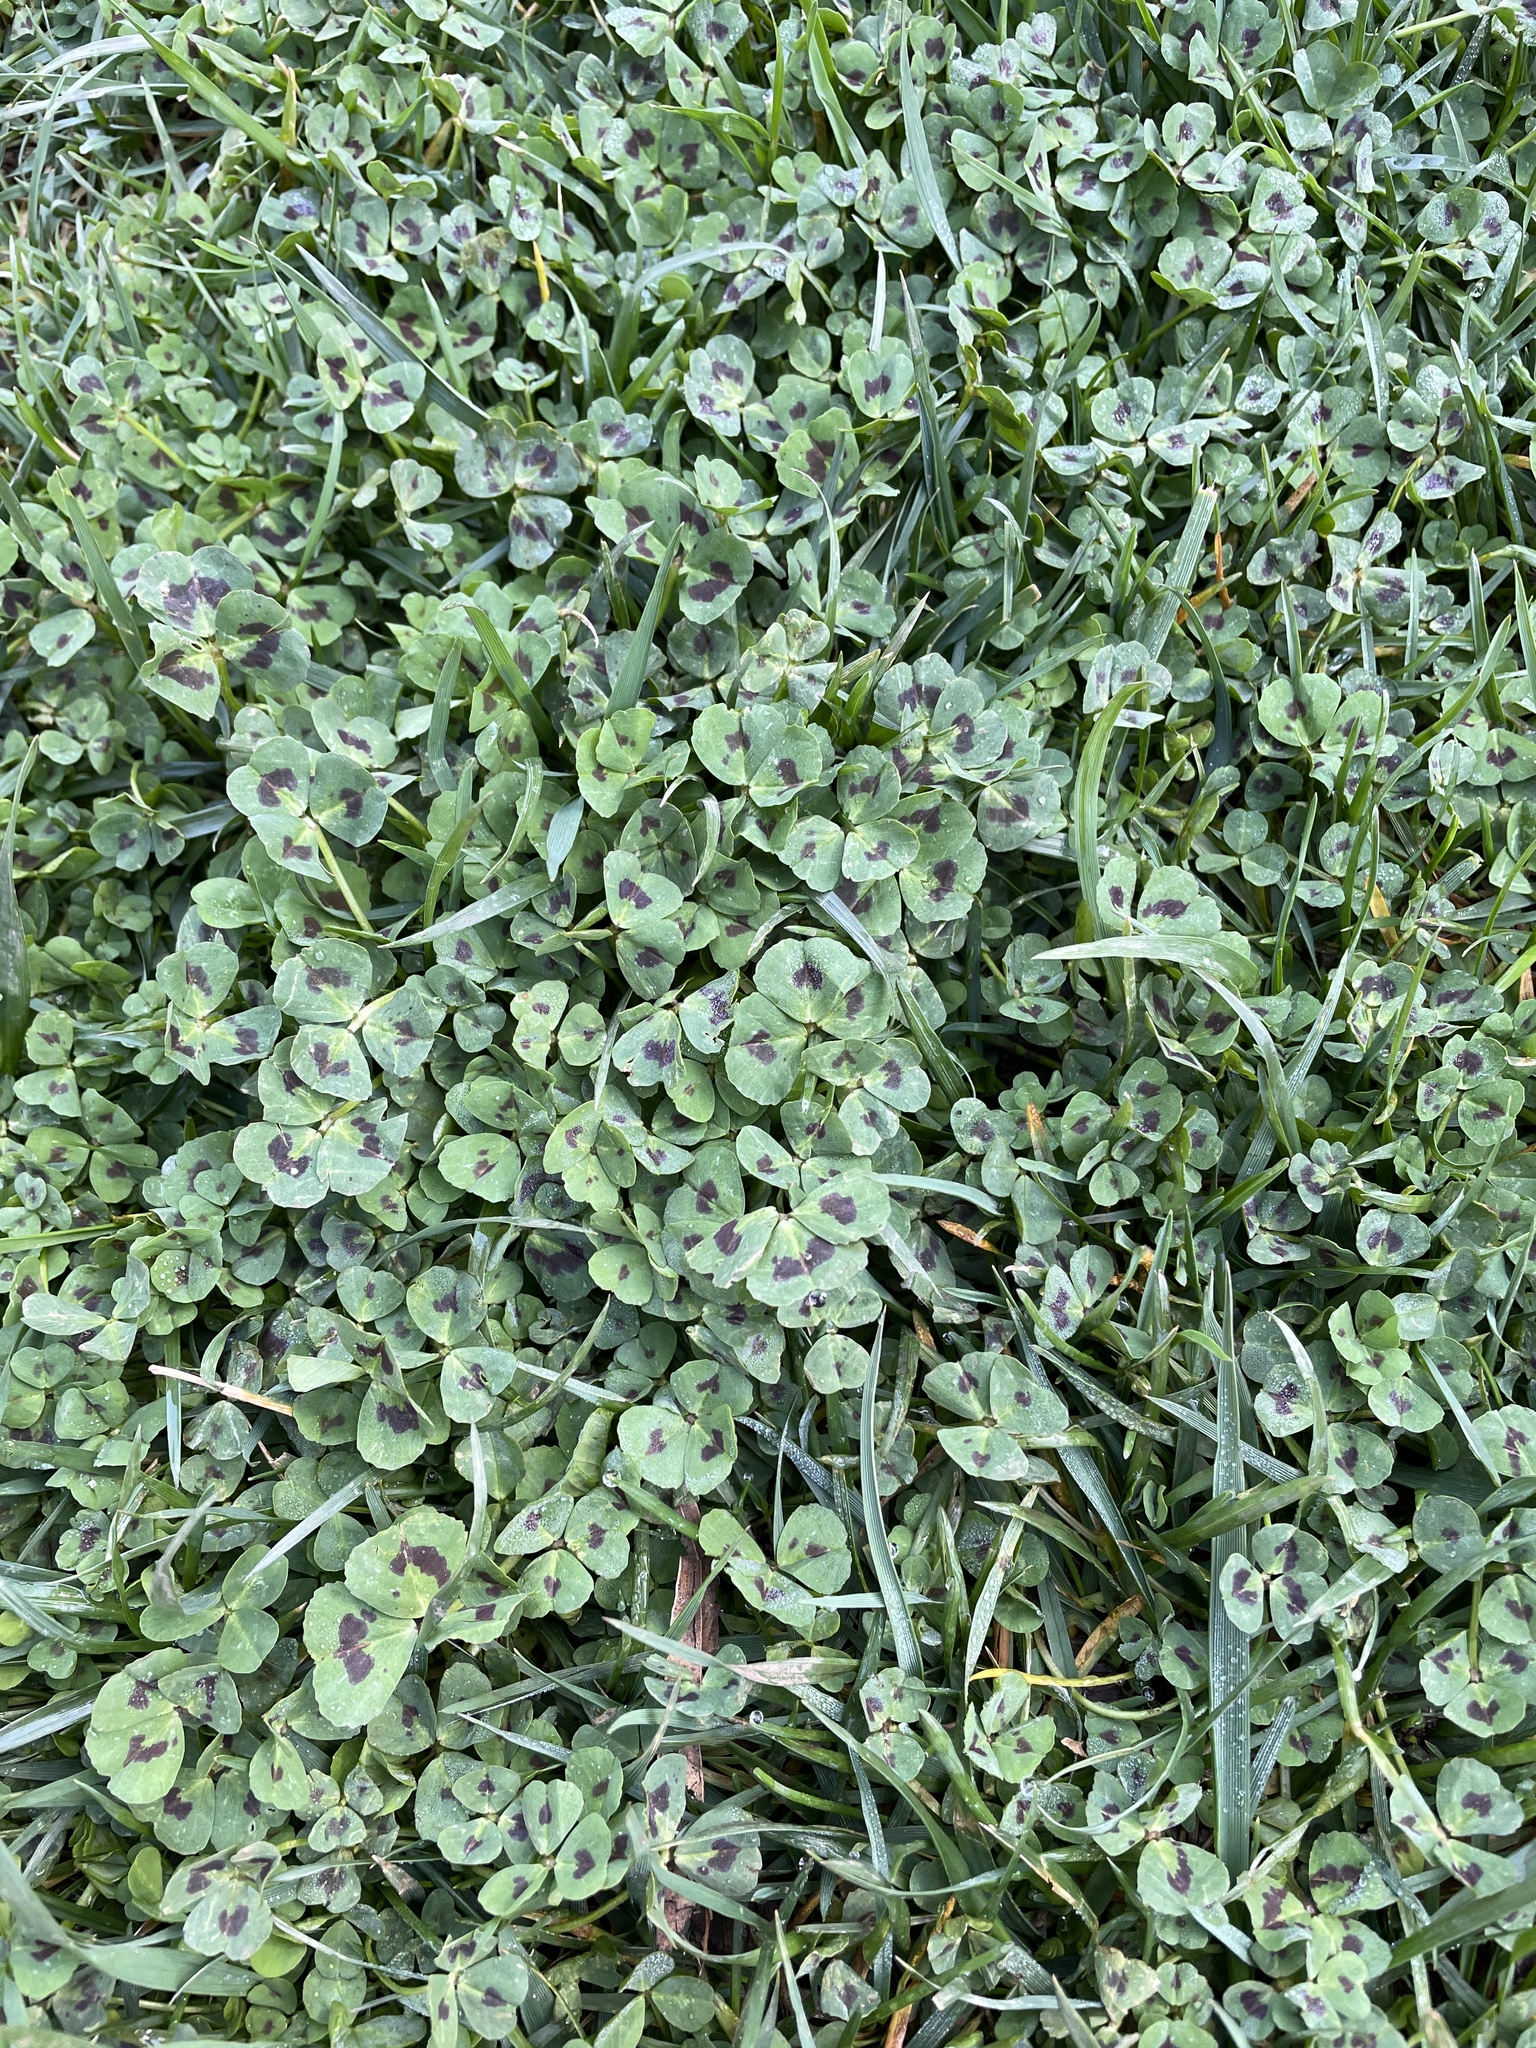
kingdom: Plantae
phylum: Tracheophyta
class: Magnoliopsida
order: Fabales
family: Fabaceae
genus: Medicago
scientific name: Medicago arabica
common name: Spotted medick
